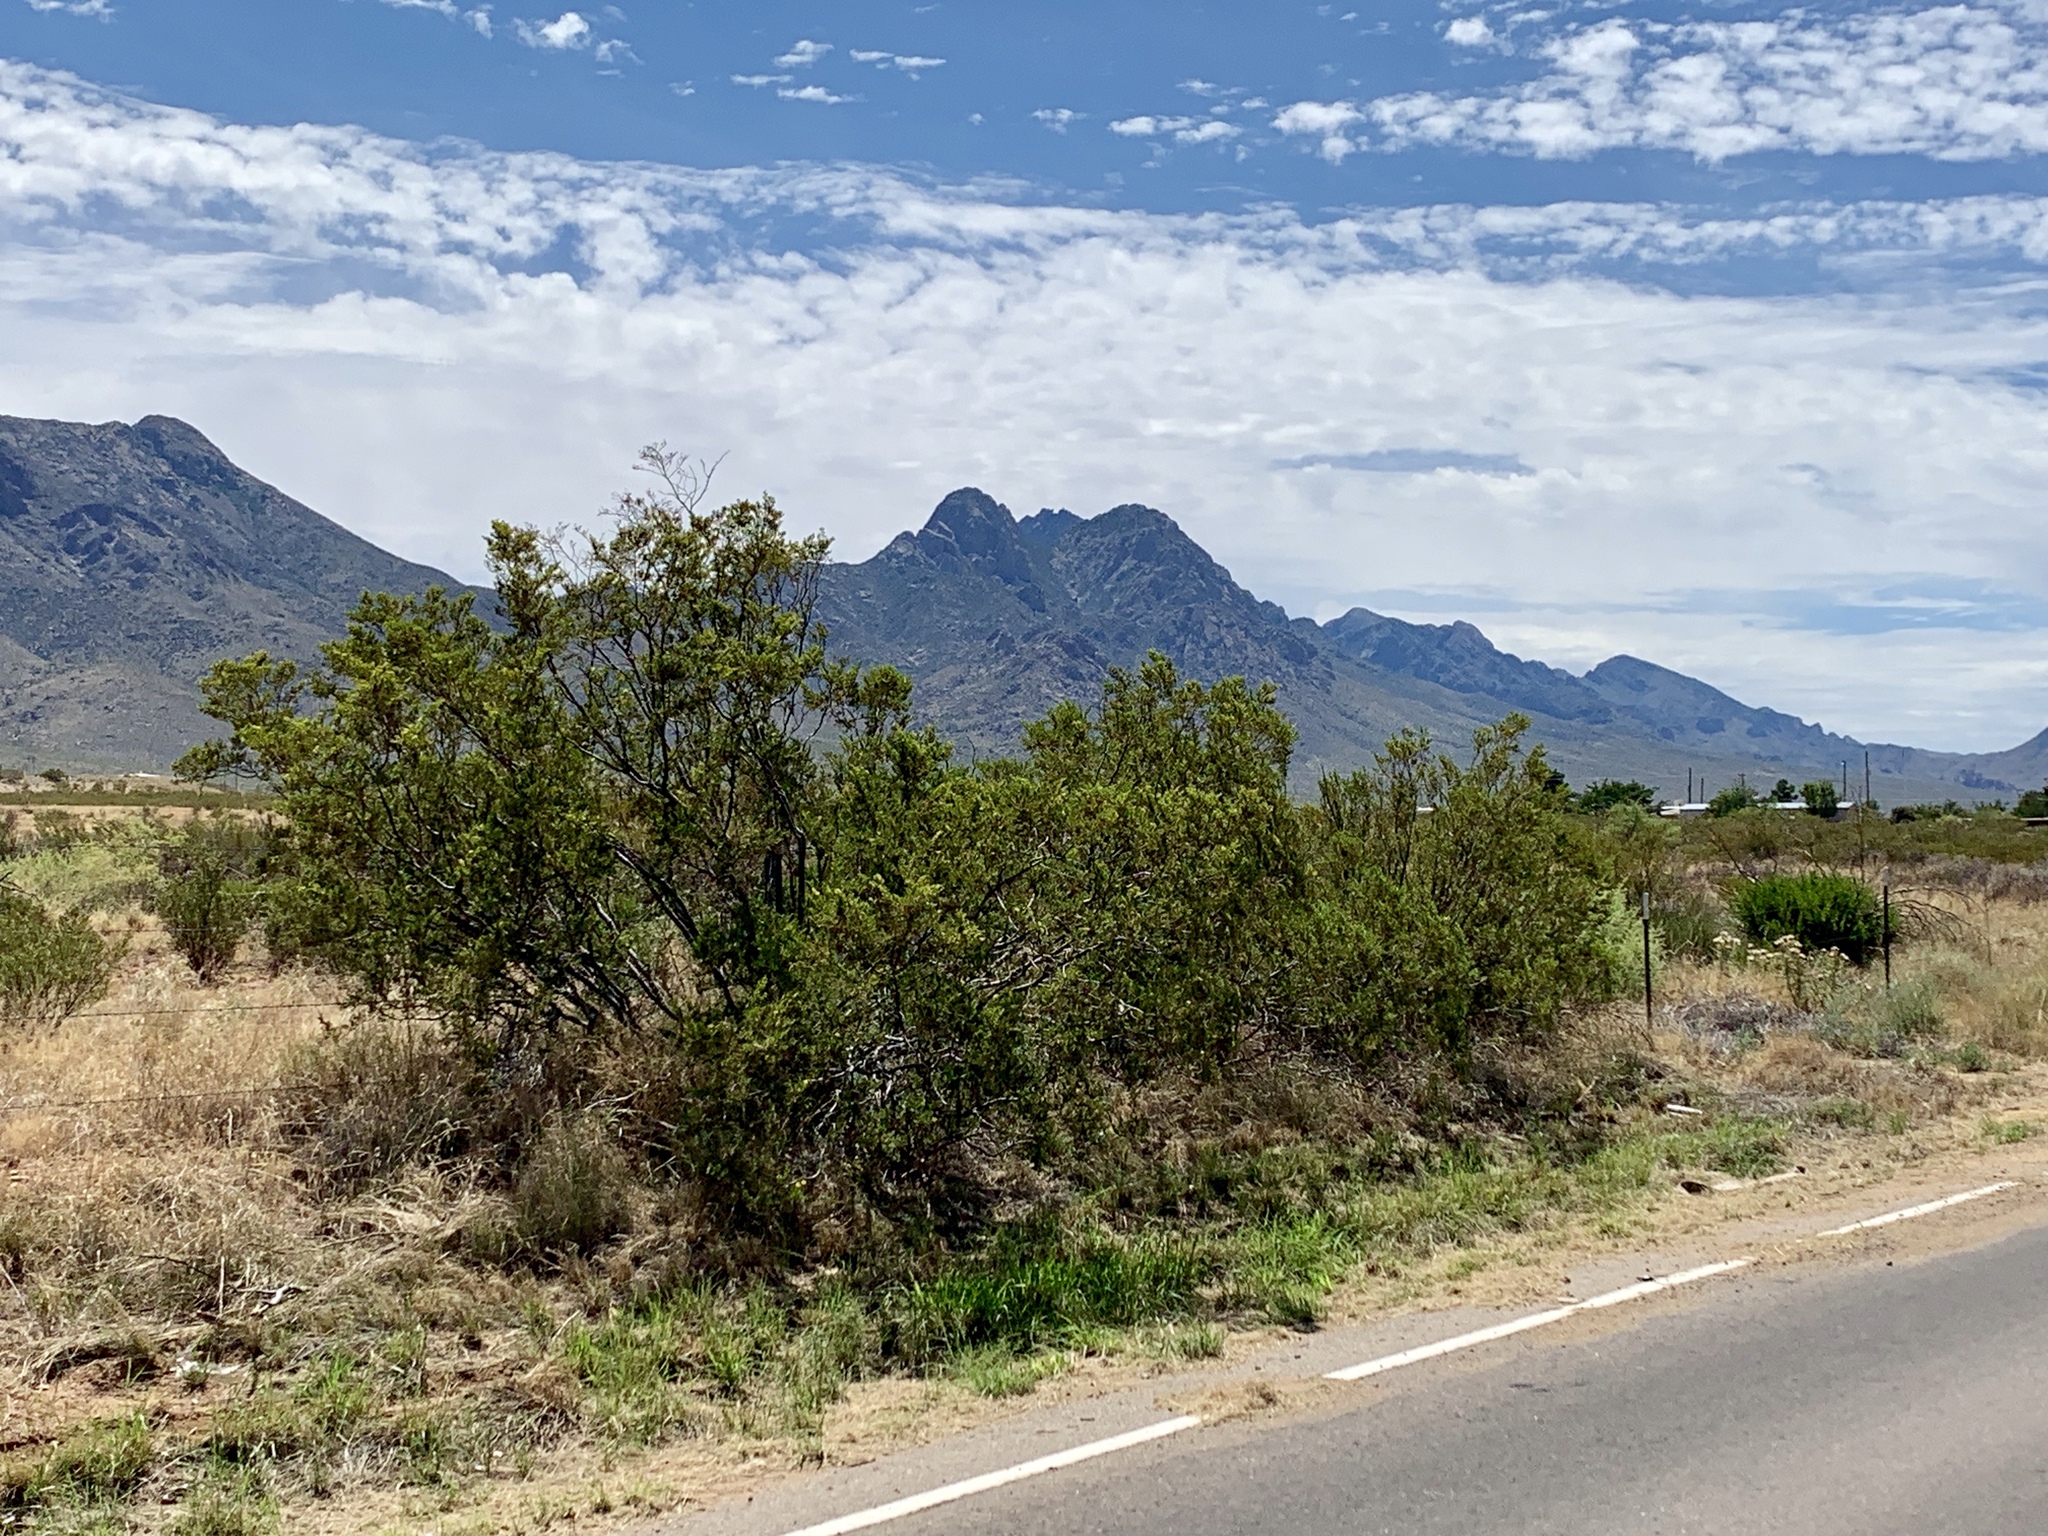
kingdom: Plantae
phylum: Tracheophyta
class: Magnoliopsida
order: Zygophyllales
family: Zygophyllaceae
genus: Larrea
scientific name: Larrea tridentata
